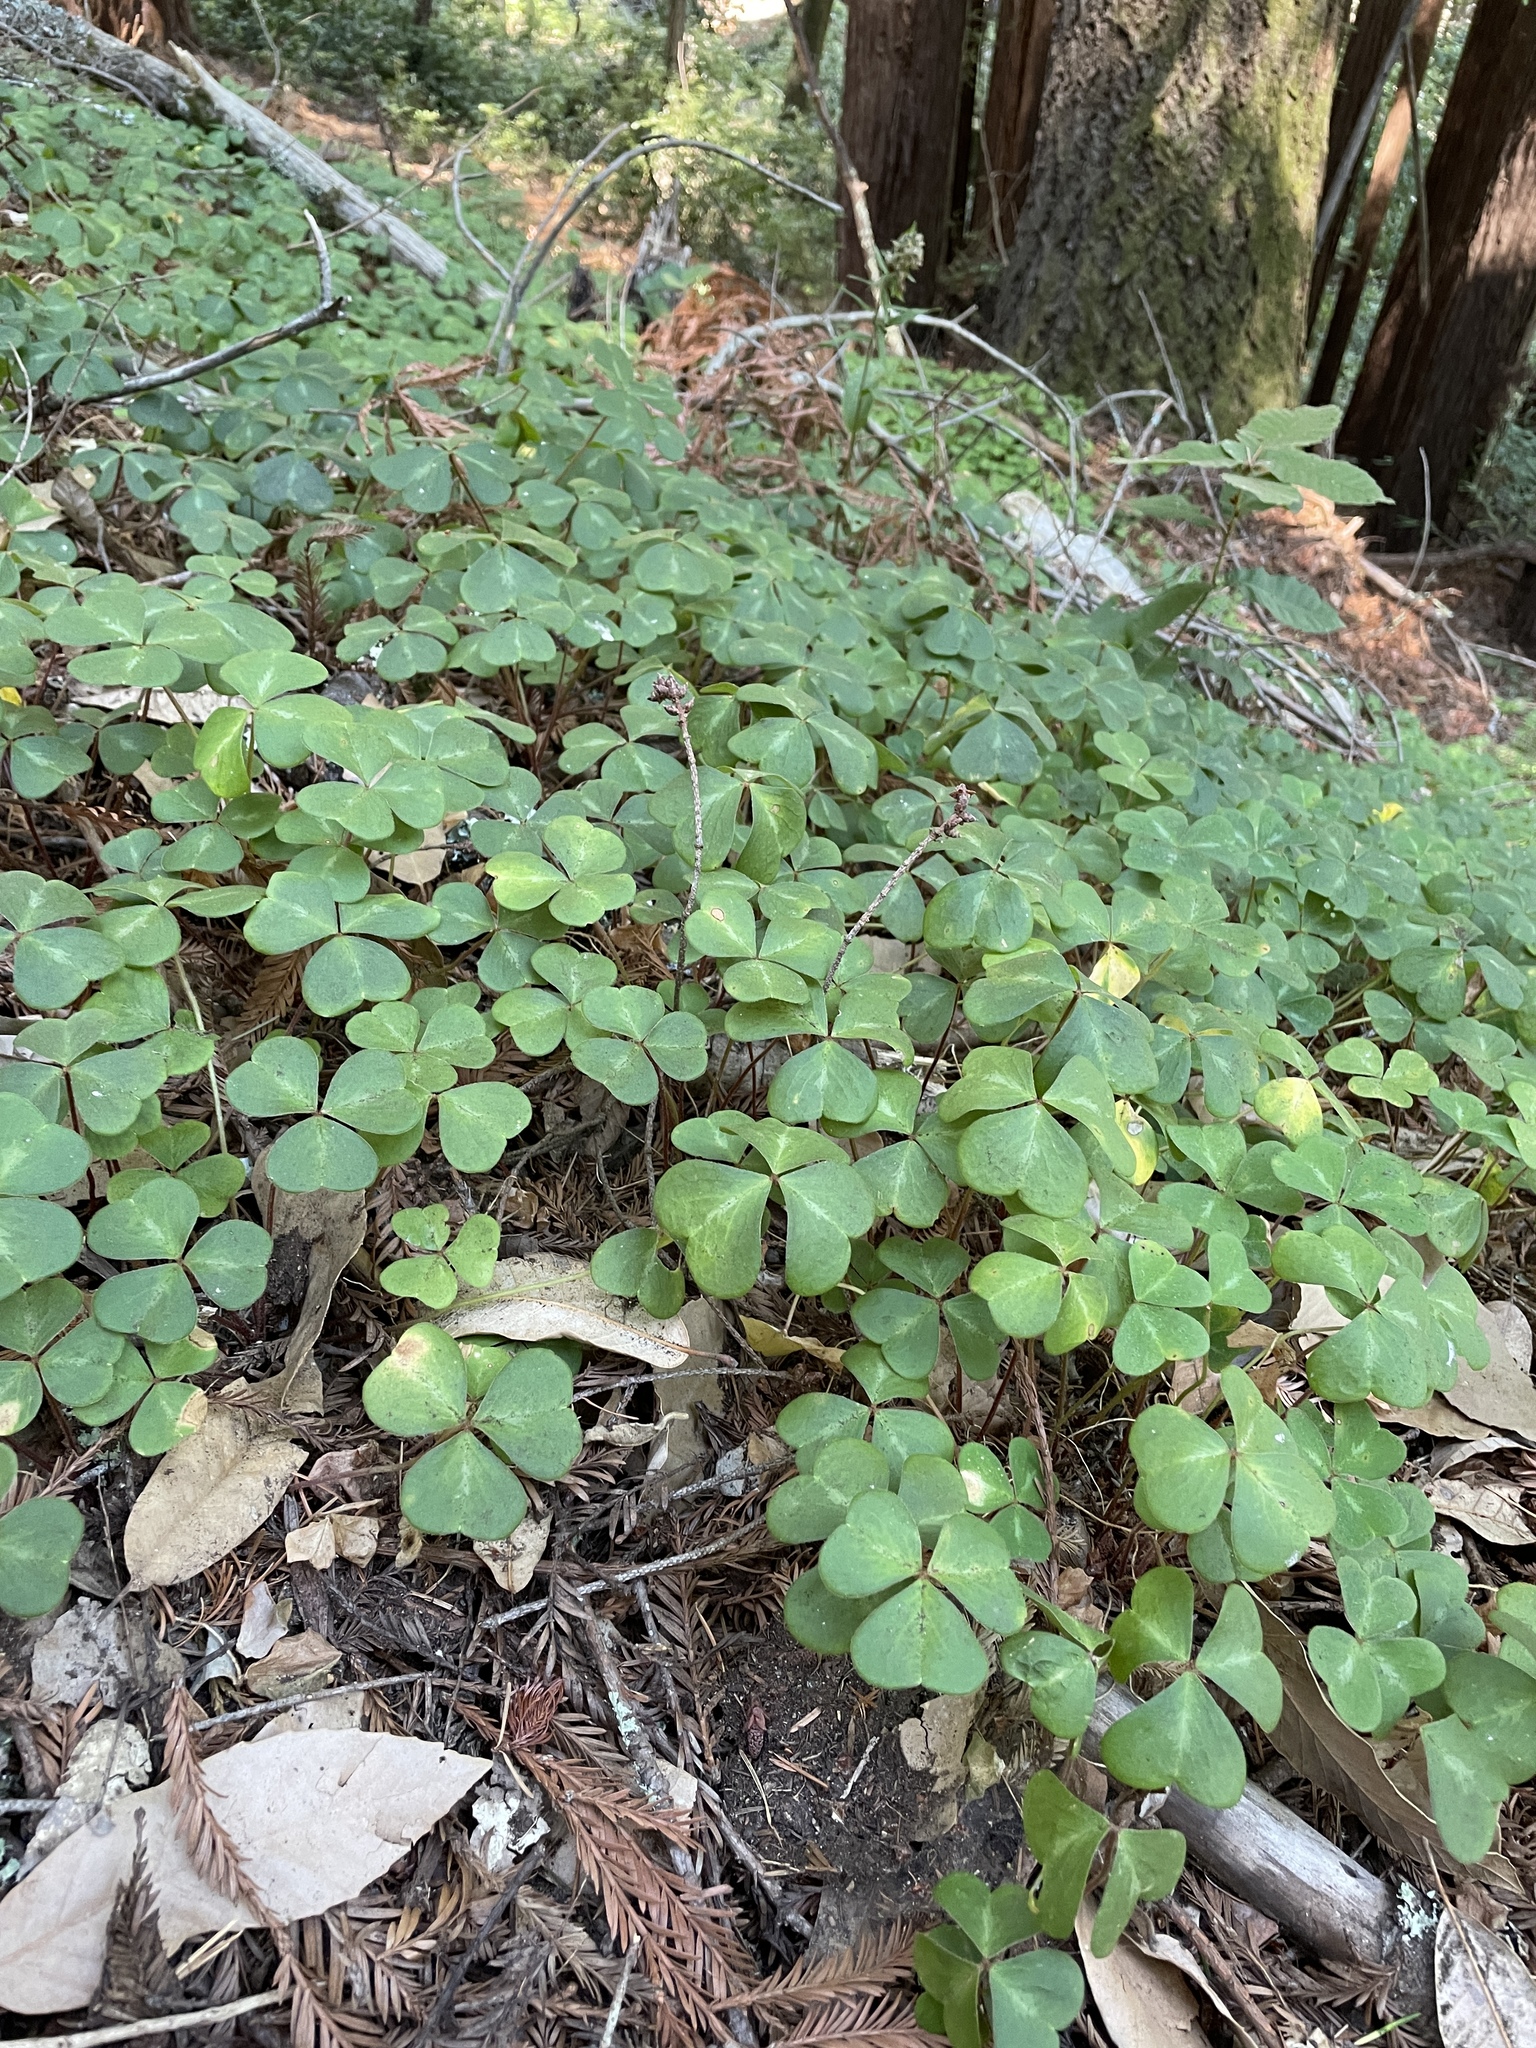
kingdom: Plantae
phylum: Tracheophyta
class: Magnoliopsida
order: Oxalidales
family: Oxalidaceae
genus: Oxalis
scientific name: Oxalis oregana
